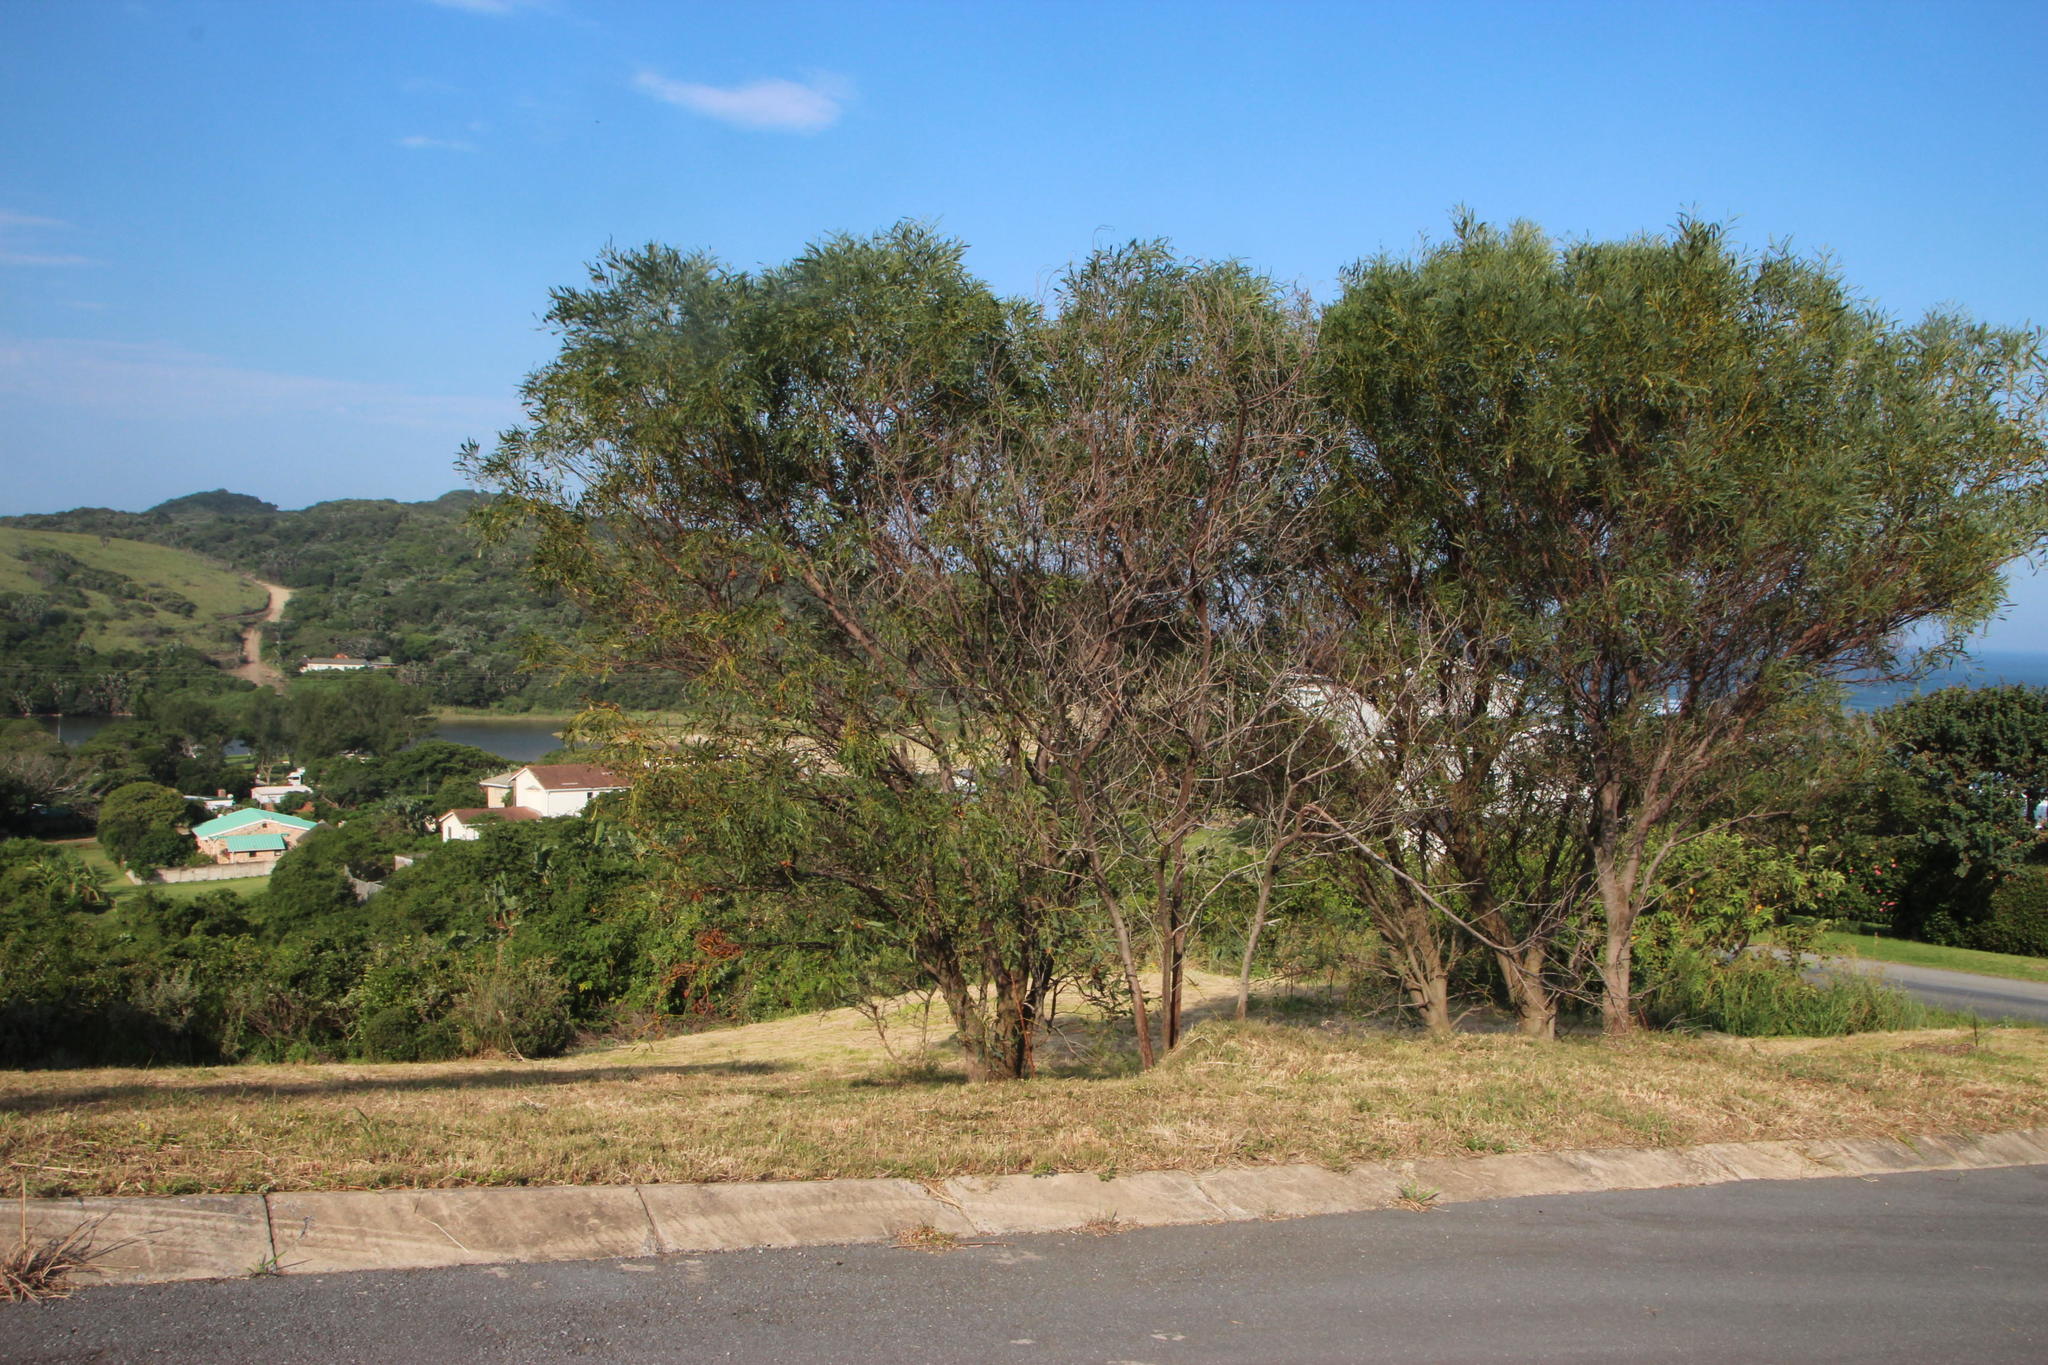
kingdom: Fungi
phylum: Basidiomycota
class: Pucciniomycetes
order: Pucciniales
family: Uromycladiaceae
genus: Uromycladium
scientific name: Uromycladium morrisii
